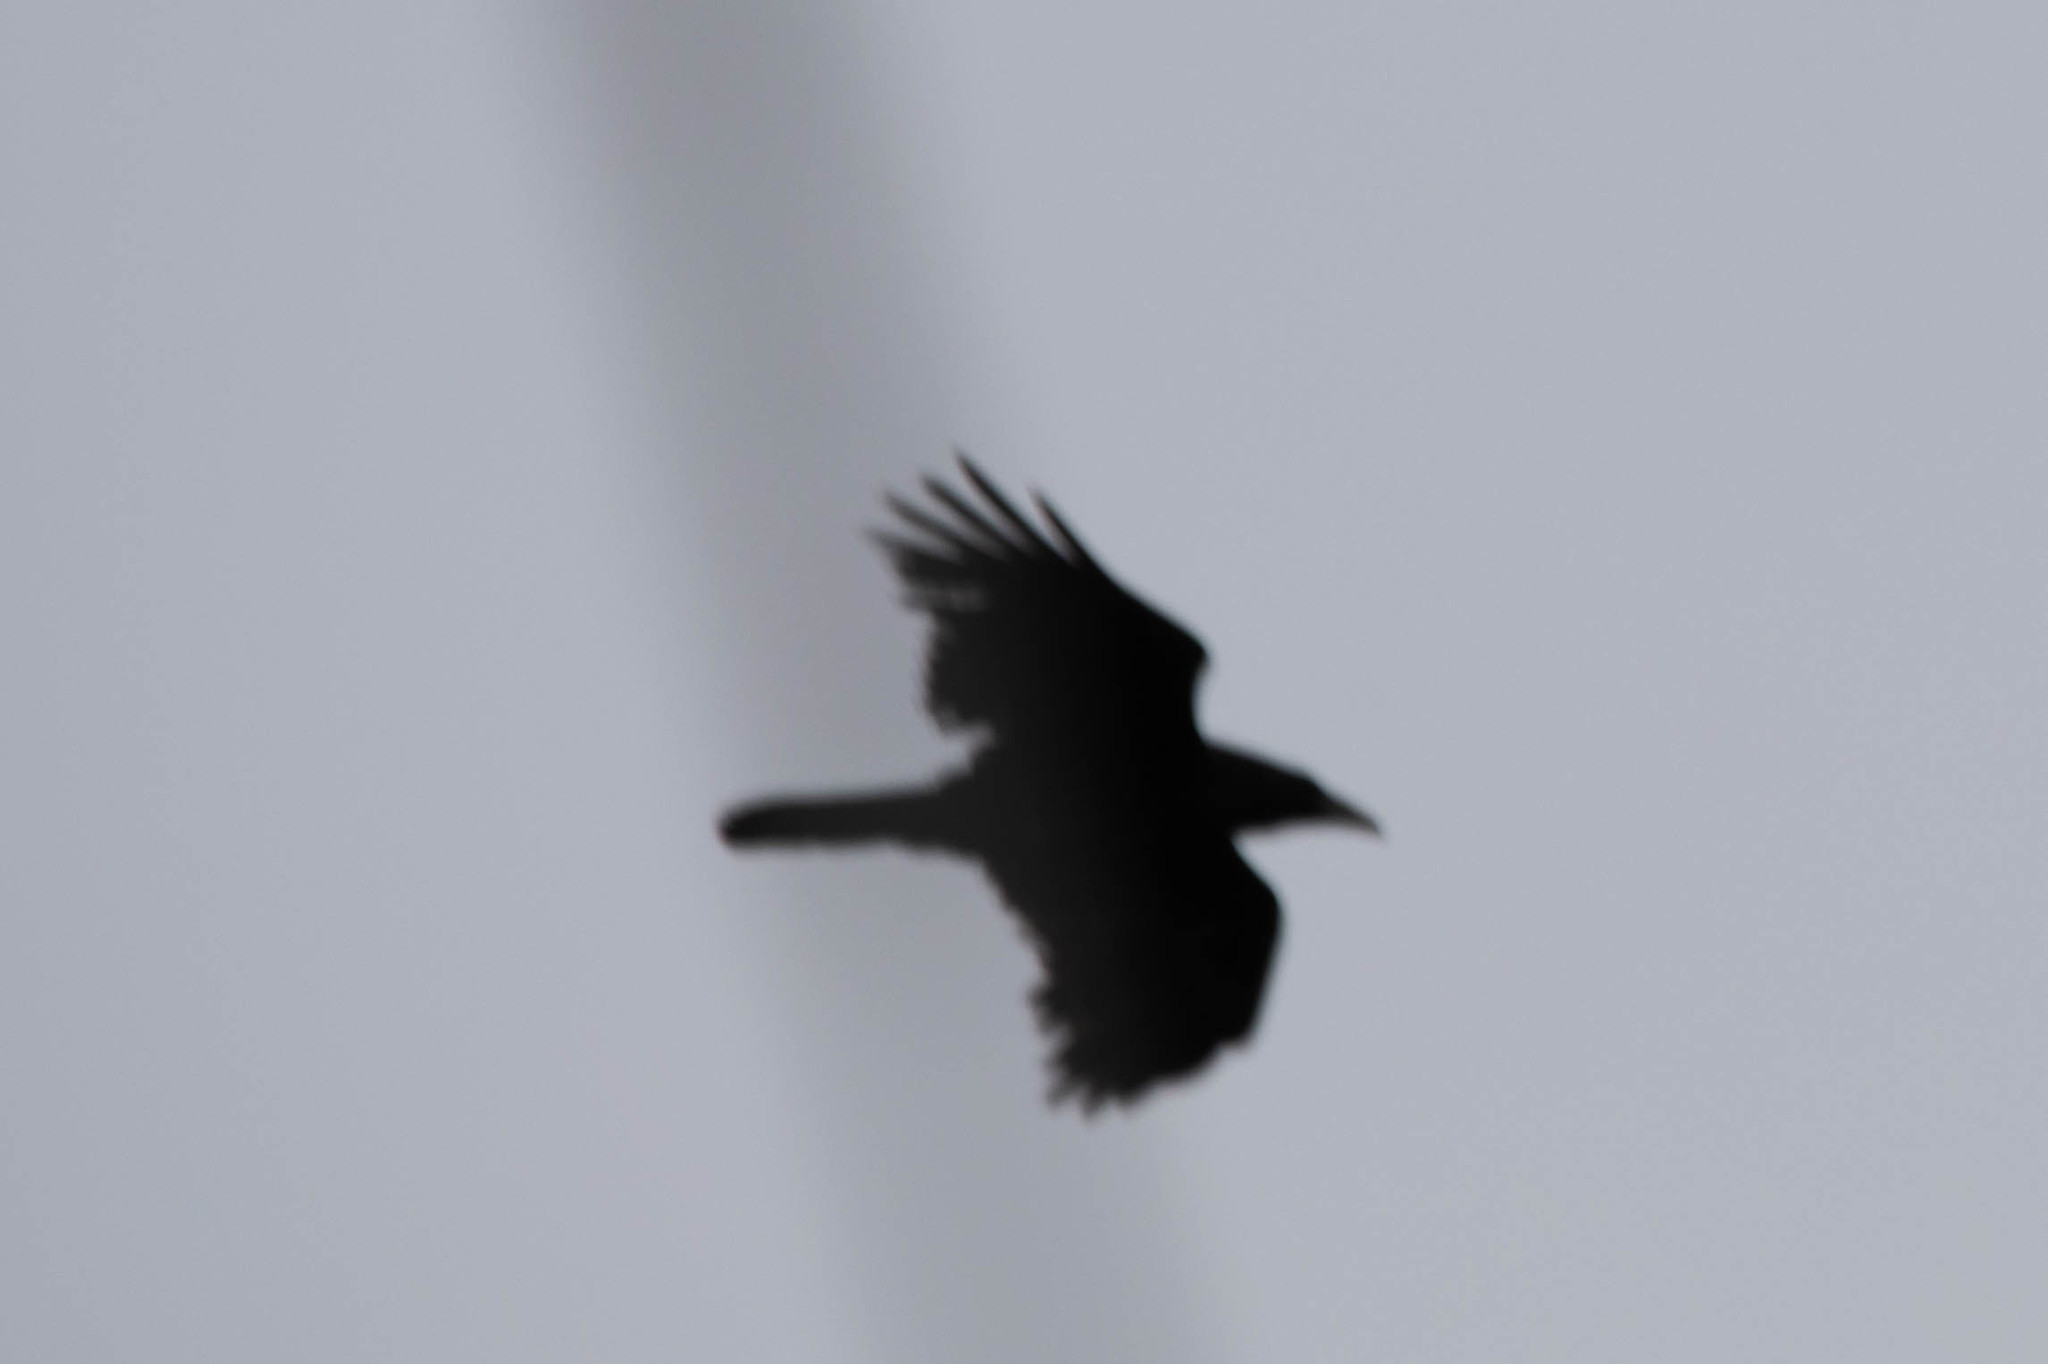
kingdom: Animalia
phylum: Chordata
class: Aves
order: Passeriformes
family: Corvidae
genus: Corvus
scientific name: Corvus corax
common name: Common raven
